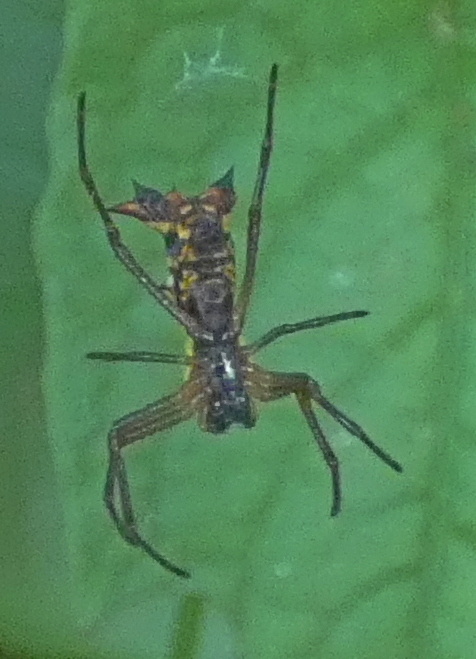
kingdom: Animalia
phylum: Arthropoda
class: Arachnida
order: Araneae
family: Araneidae
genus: Micrathena
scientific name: Micrathena fissispina
